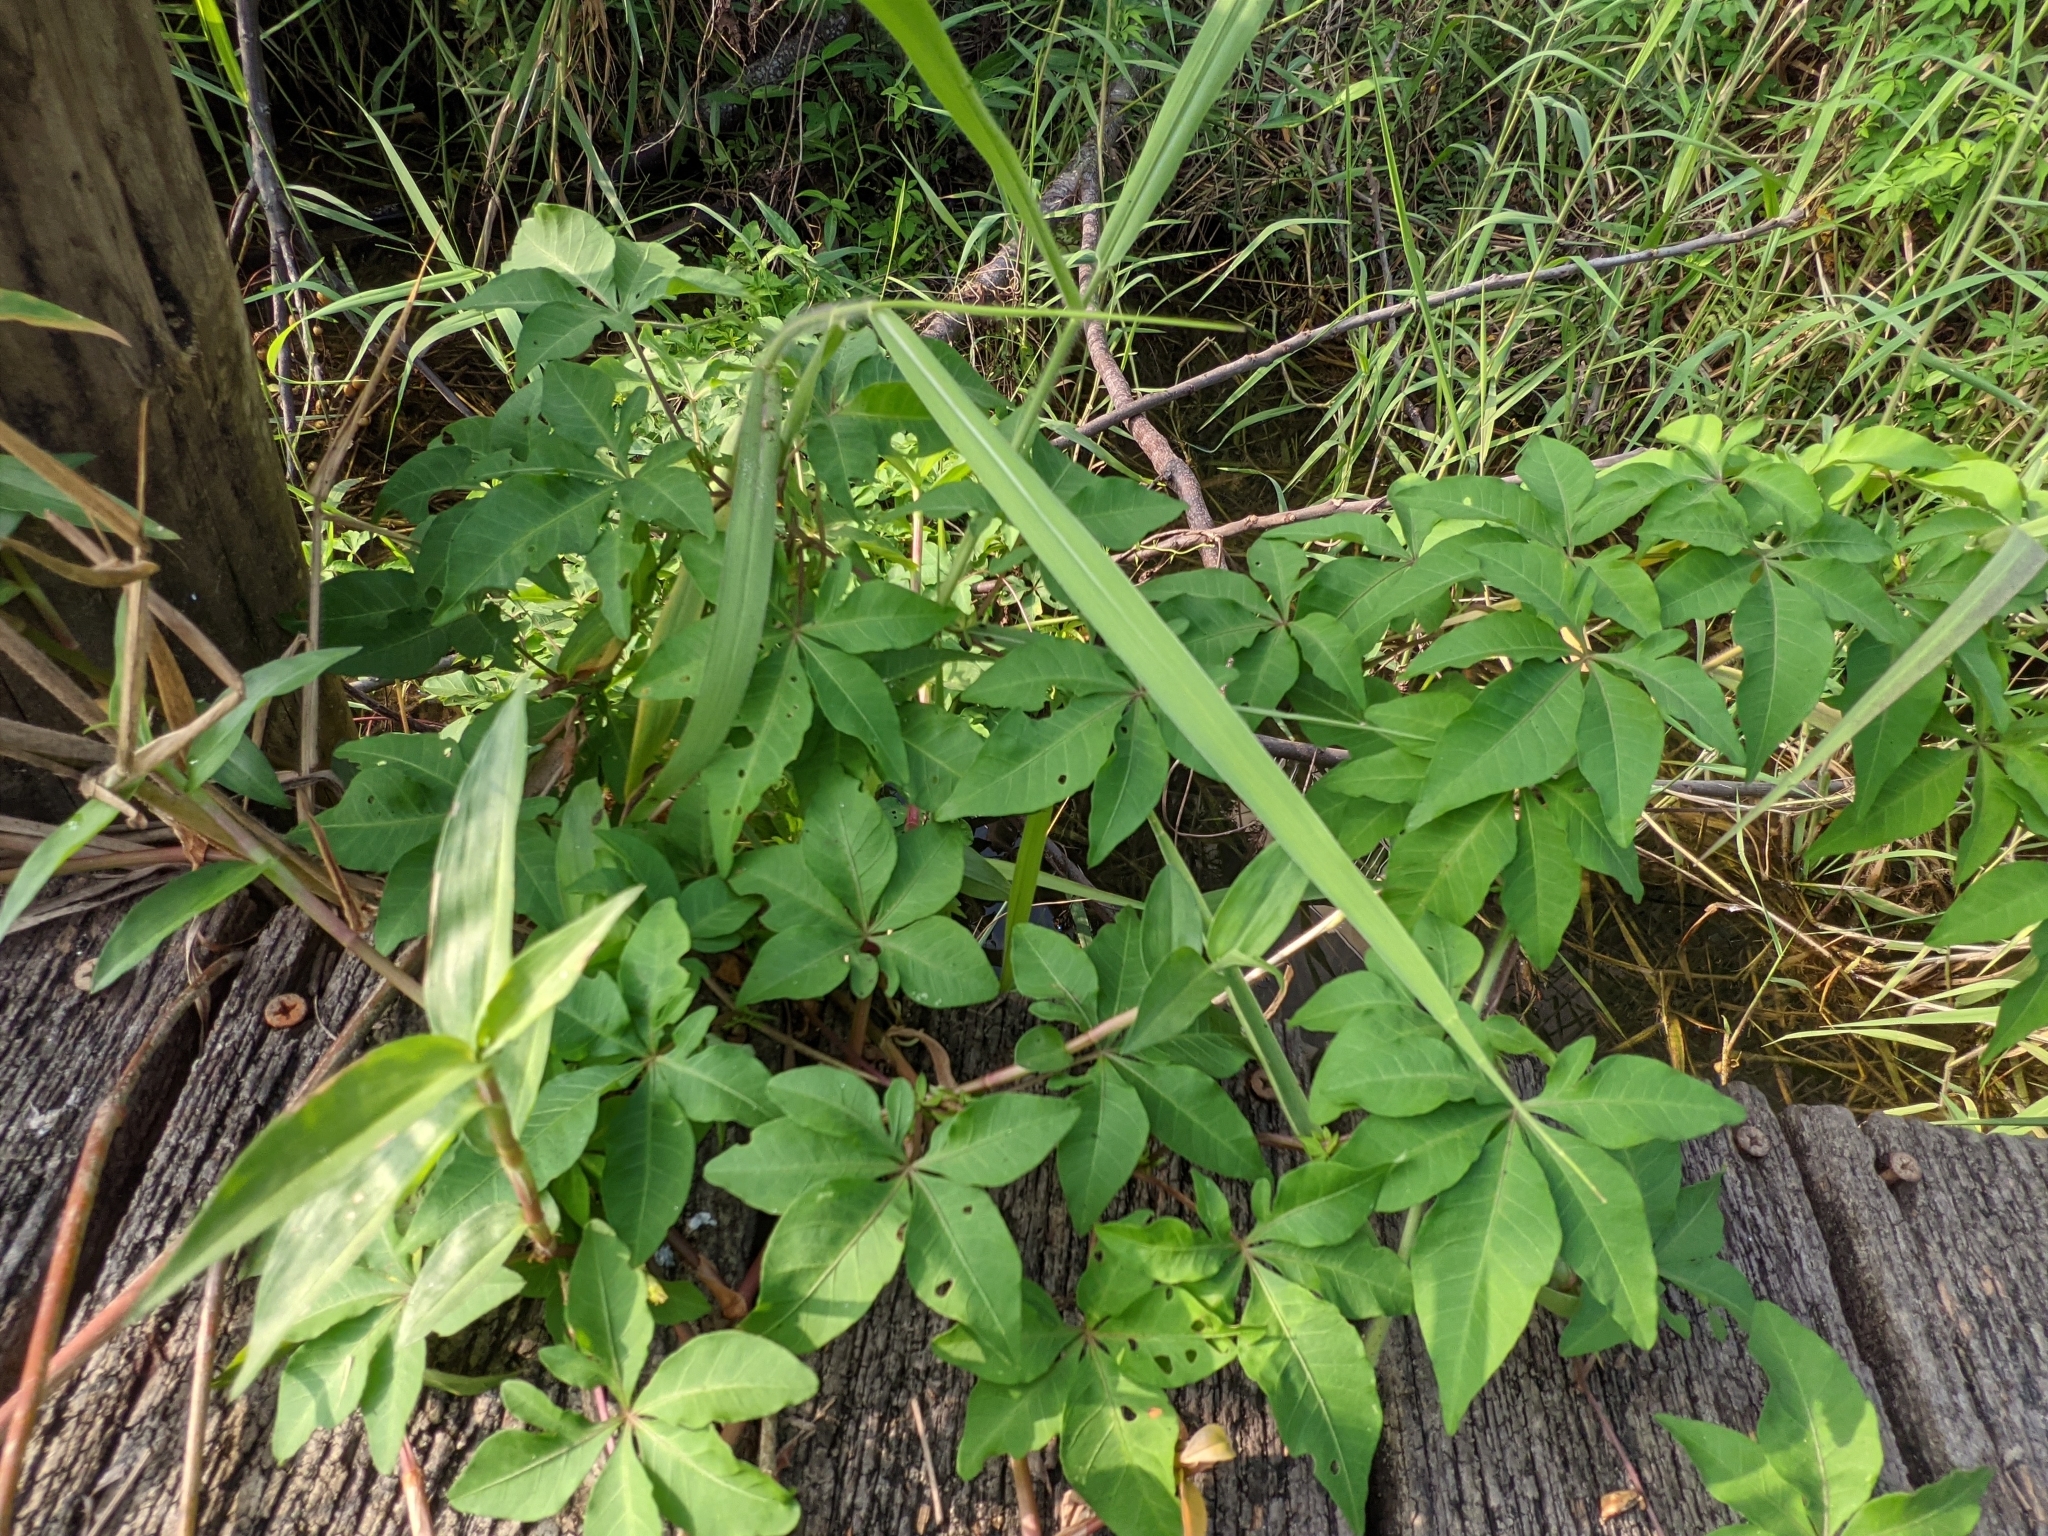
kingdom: Plantae
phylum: Tracheophyta
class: Magnoliopsida
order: Solanales
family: Convolvulaceae
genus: Ipomoea
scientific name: Ipomoea cairica
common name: Mile a minute vine
